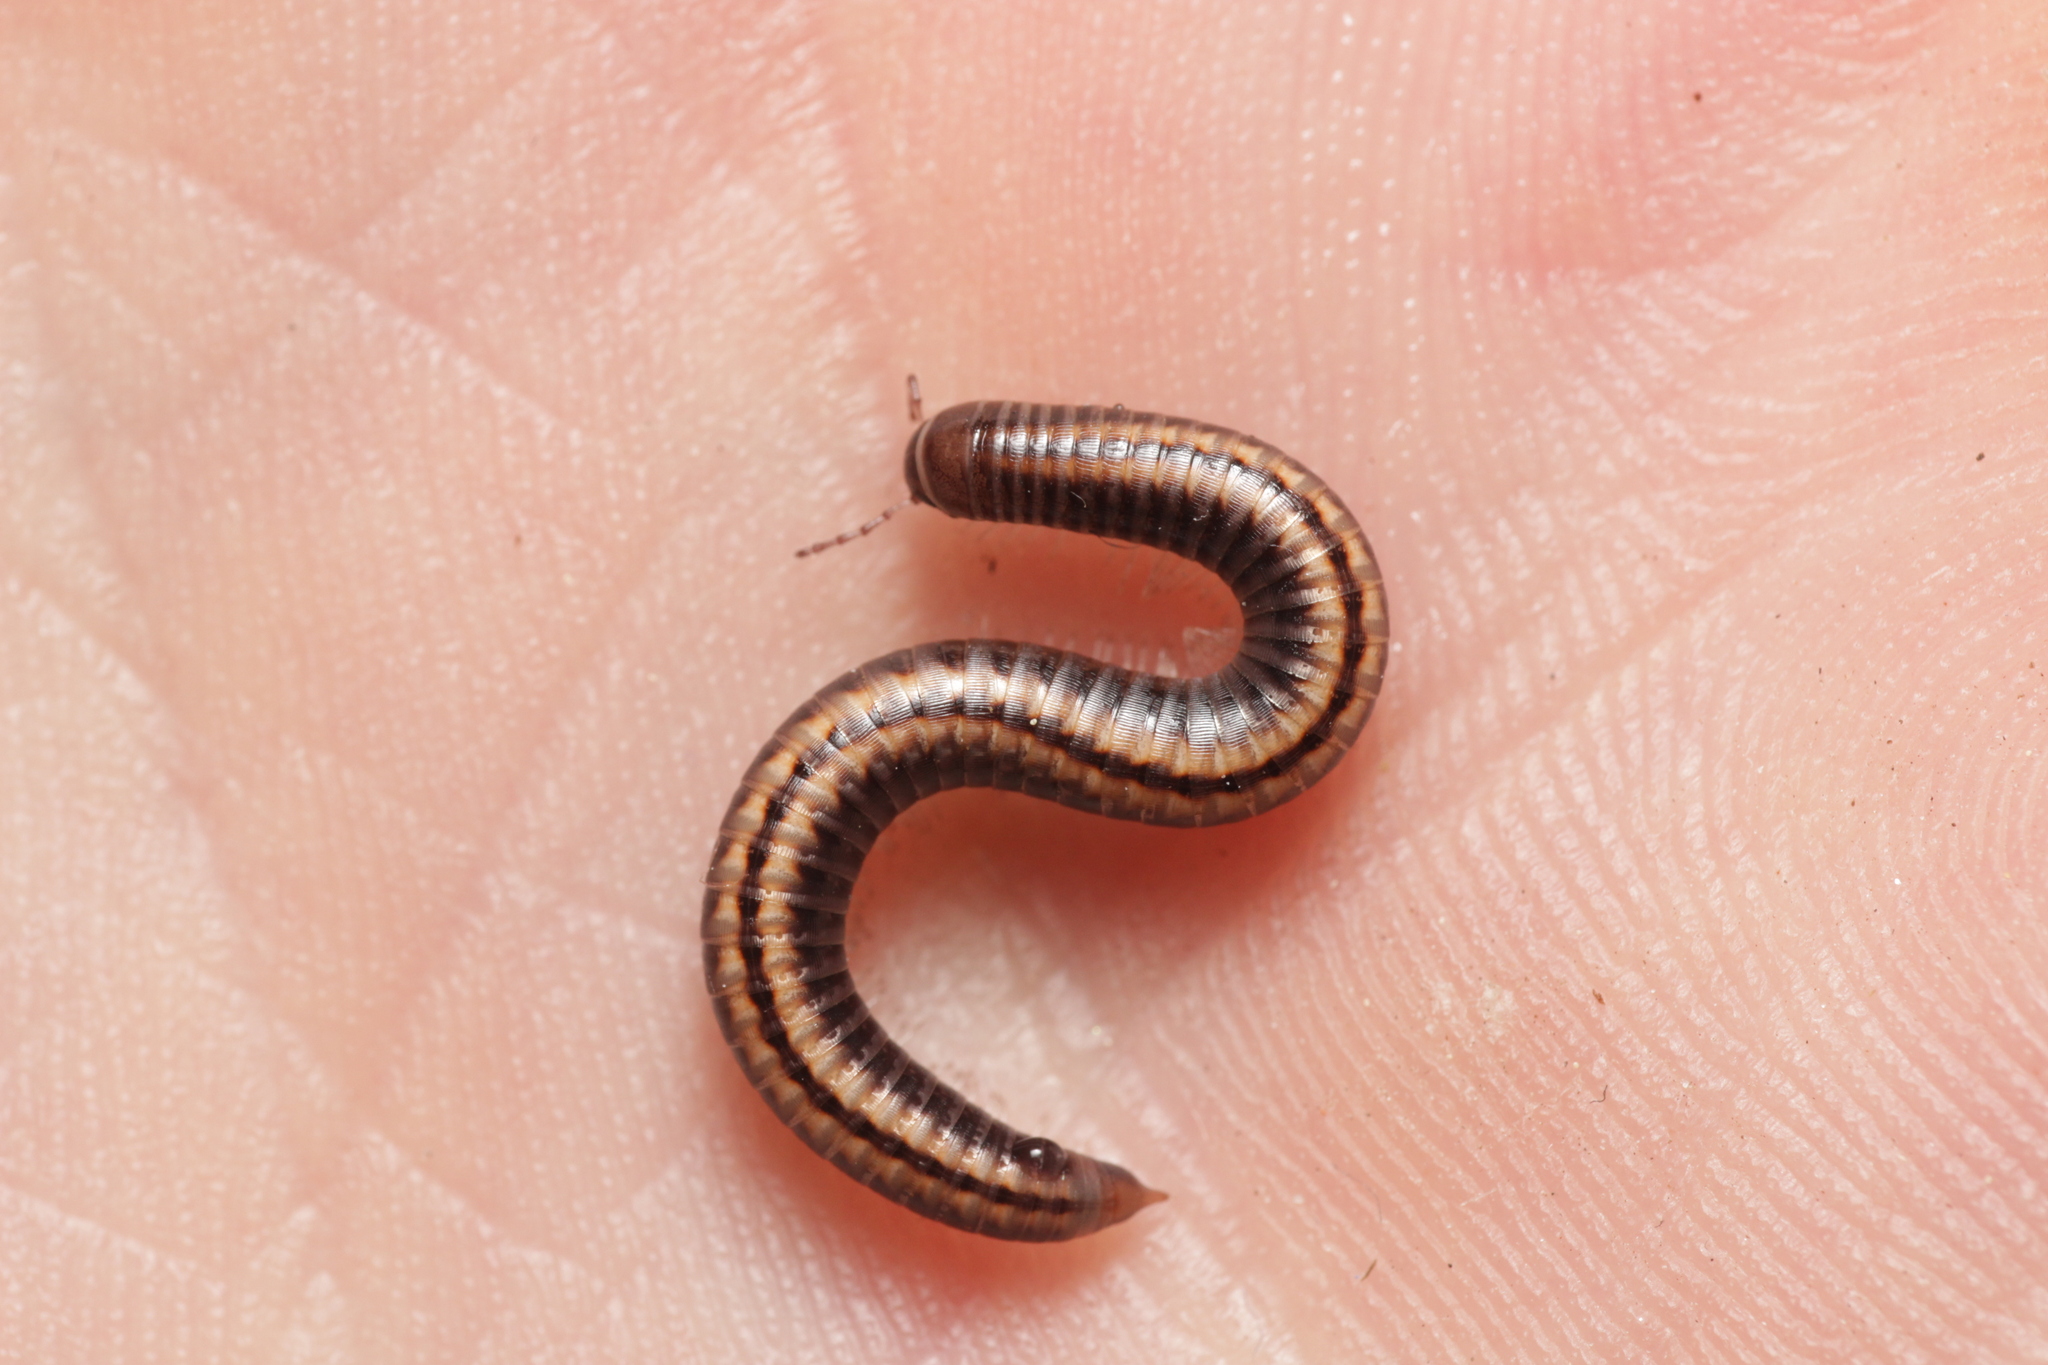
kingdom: Animalia
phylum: Arthropoda
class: Diplopoda
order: Julida
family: Julidae
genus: Ommatoiulus
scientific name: Ommatoiulus sabulosus
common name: Striped millipede
